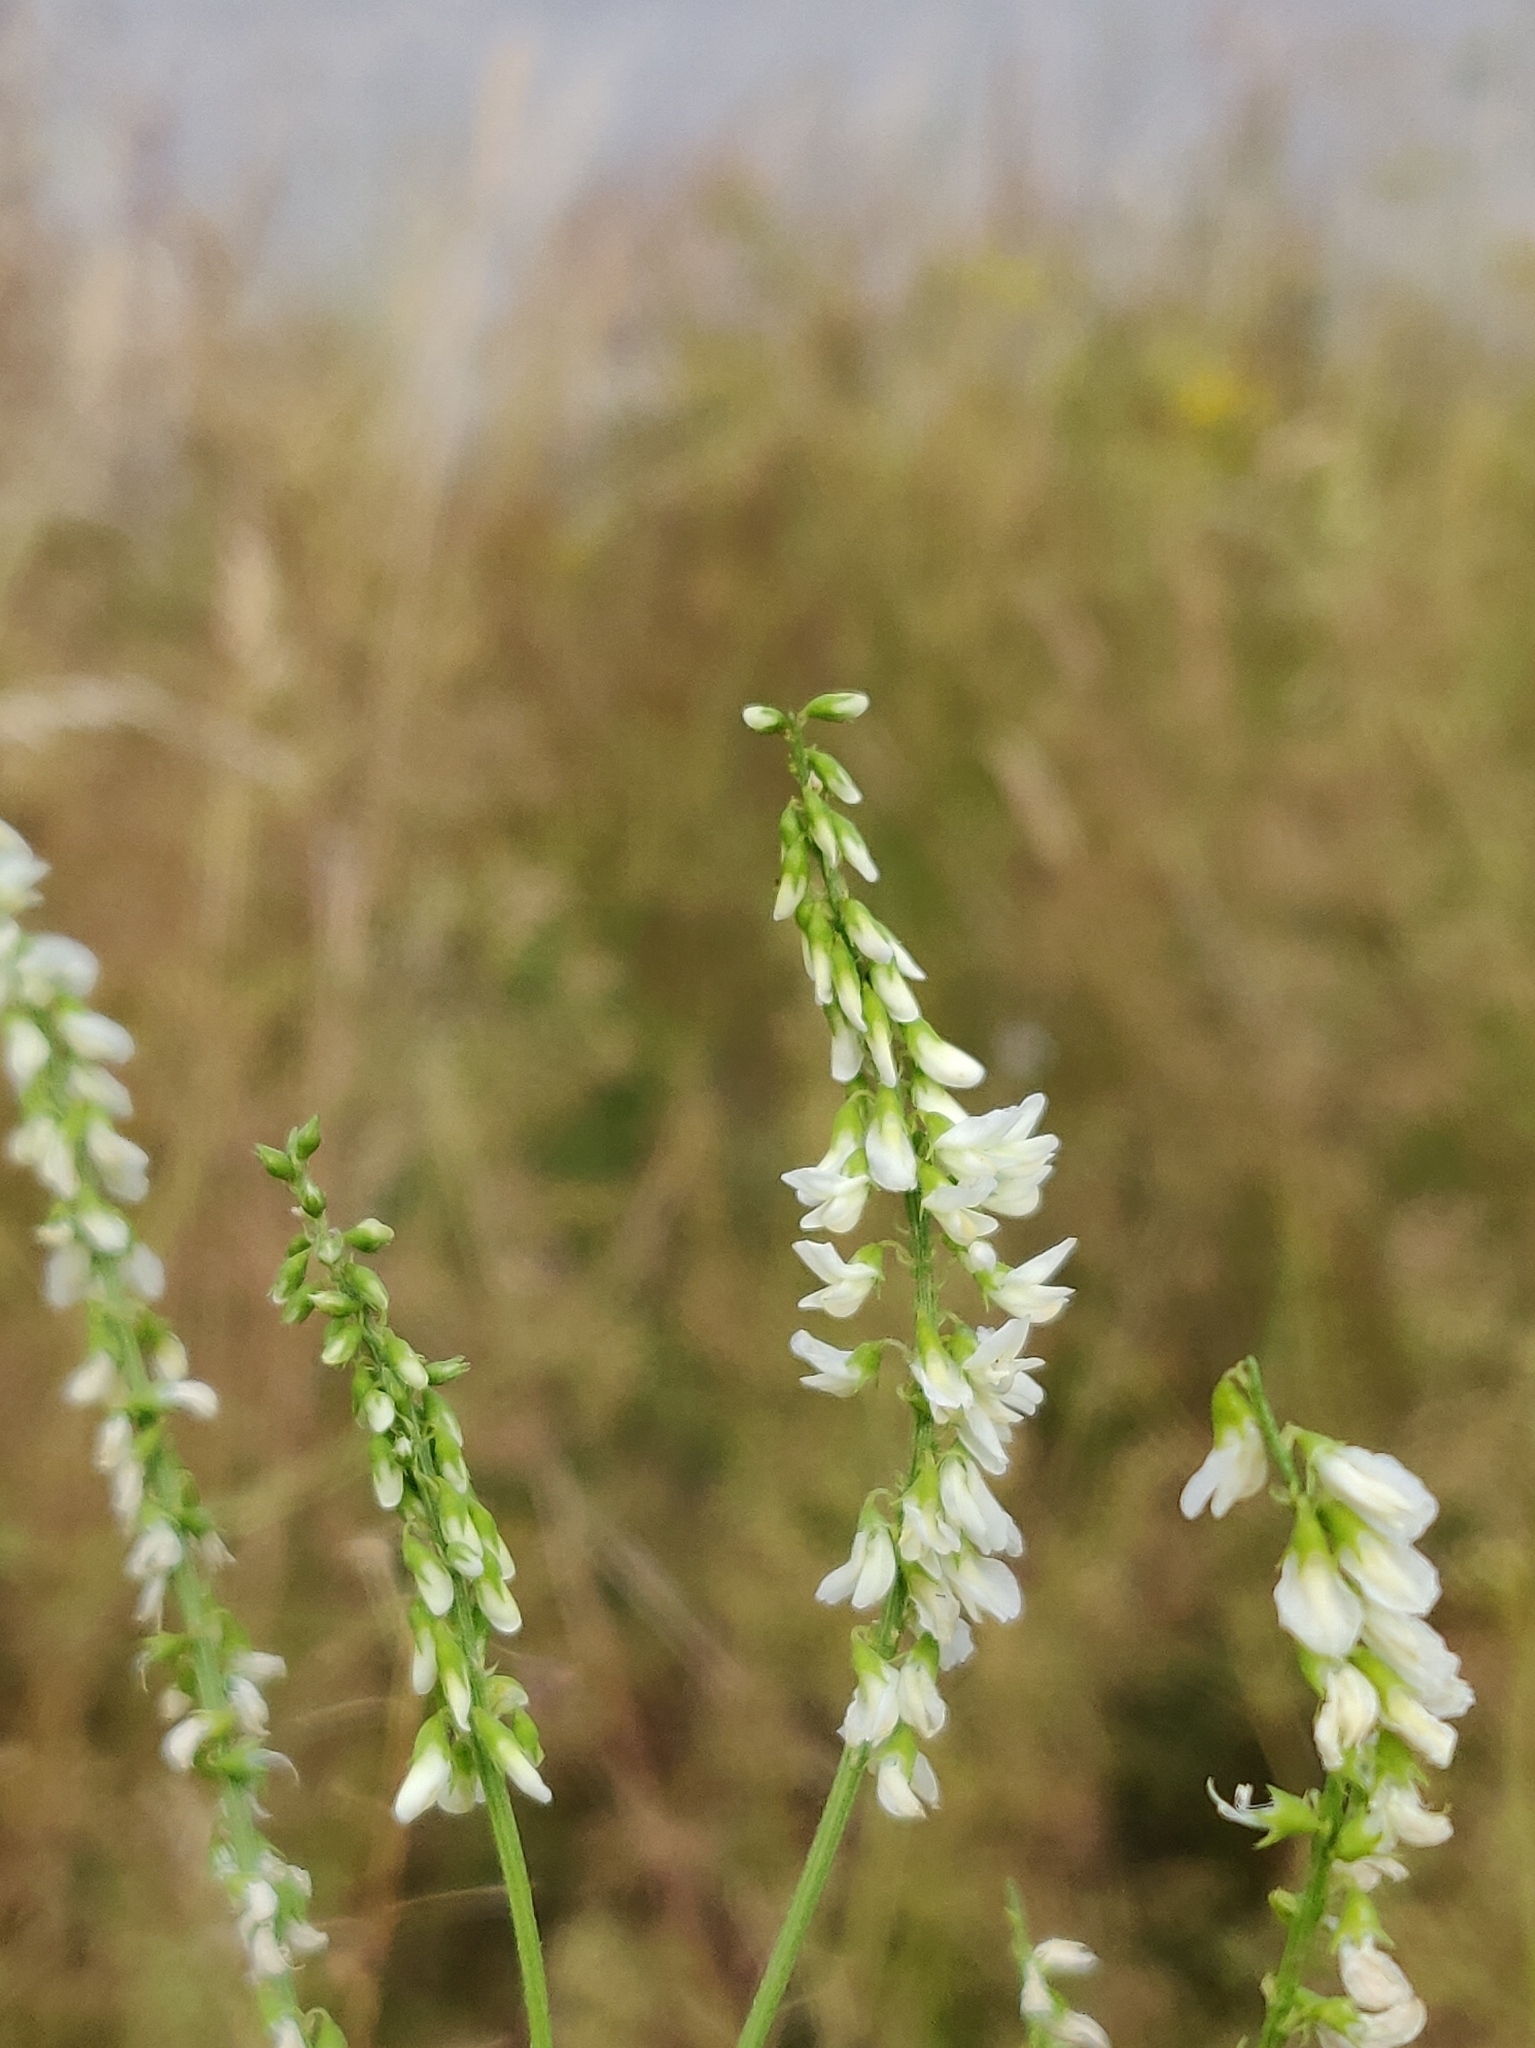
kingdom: Plantae
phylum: Tracheophyta
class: Magnoliopsida
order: Fabales
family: Fabaceae
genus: Melilotus
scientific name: Melilotus albus
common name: White melilot
